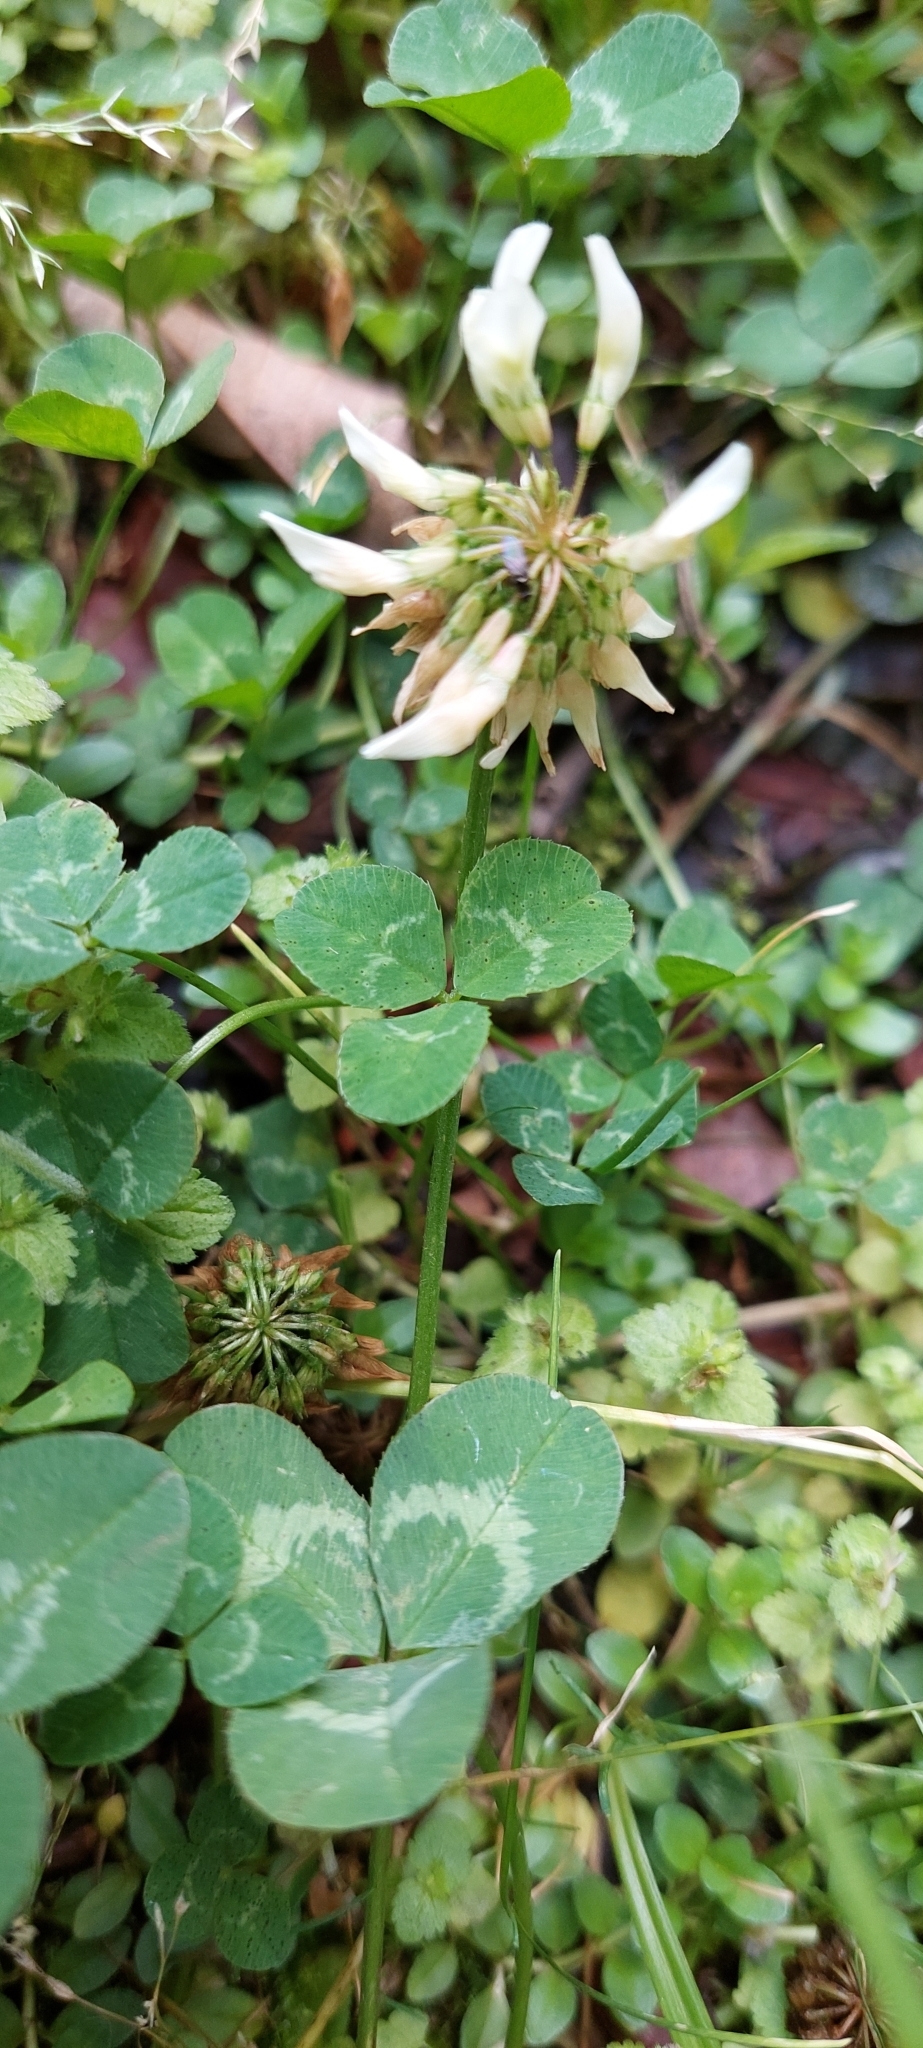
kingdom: Plantae
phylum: Tracheophyta
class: Magnoliopsida
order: Fabales
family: Fabaceae
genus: Trifolium
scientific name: Trifolium repens
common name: White clover
